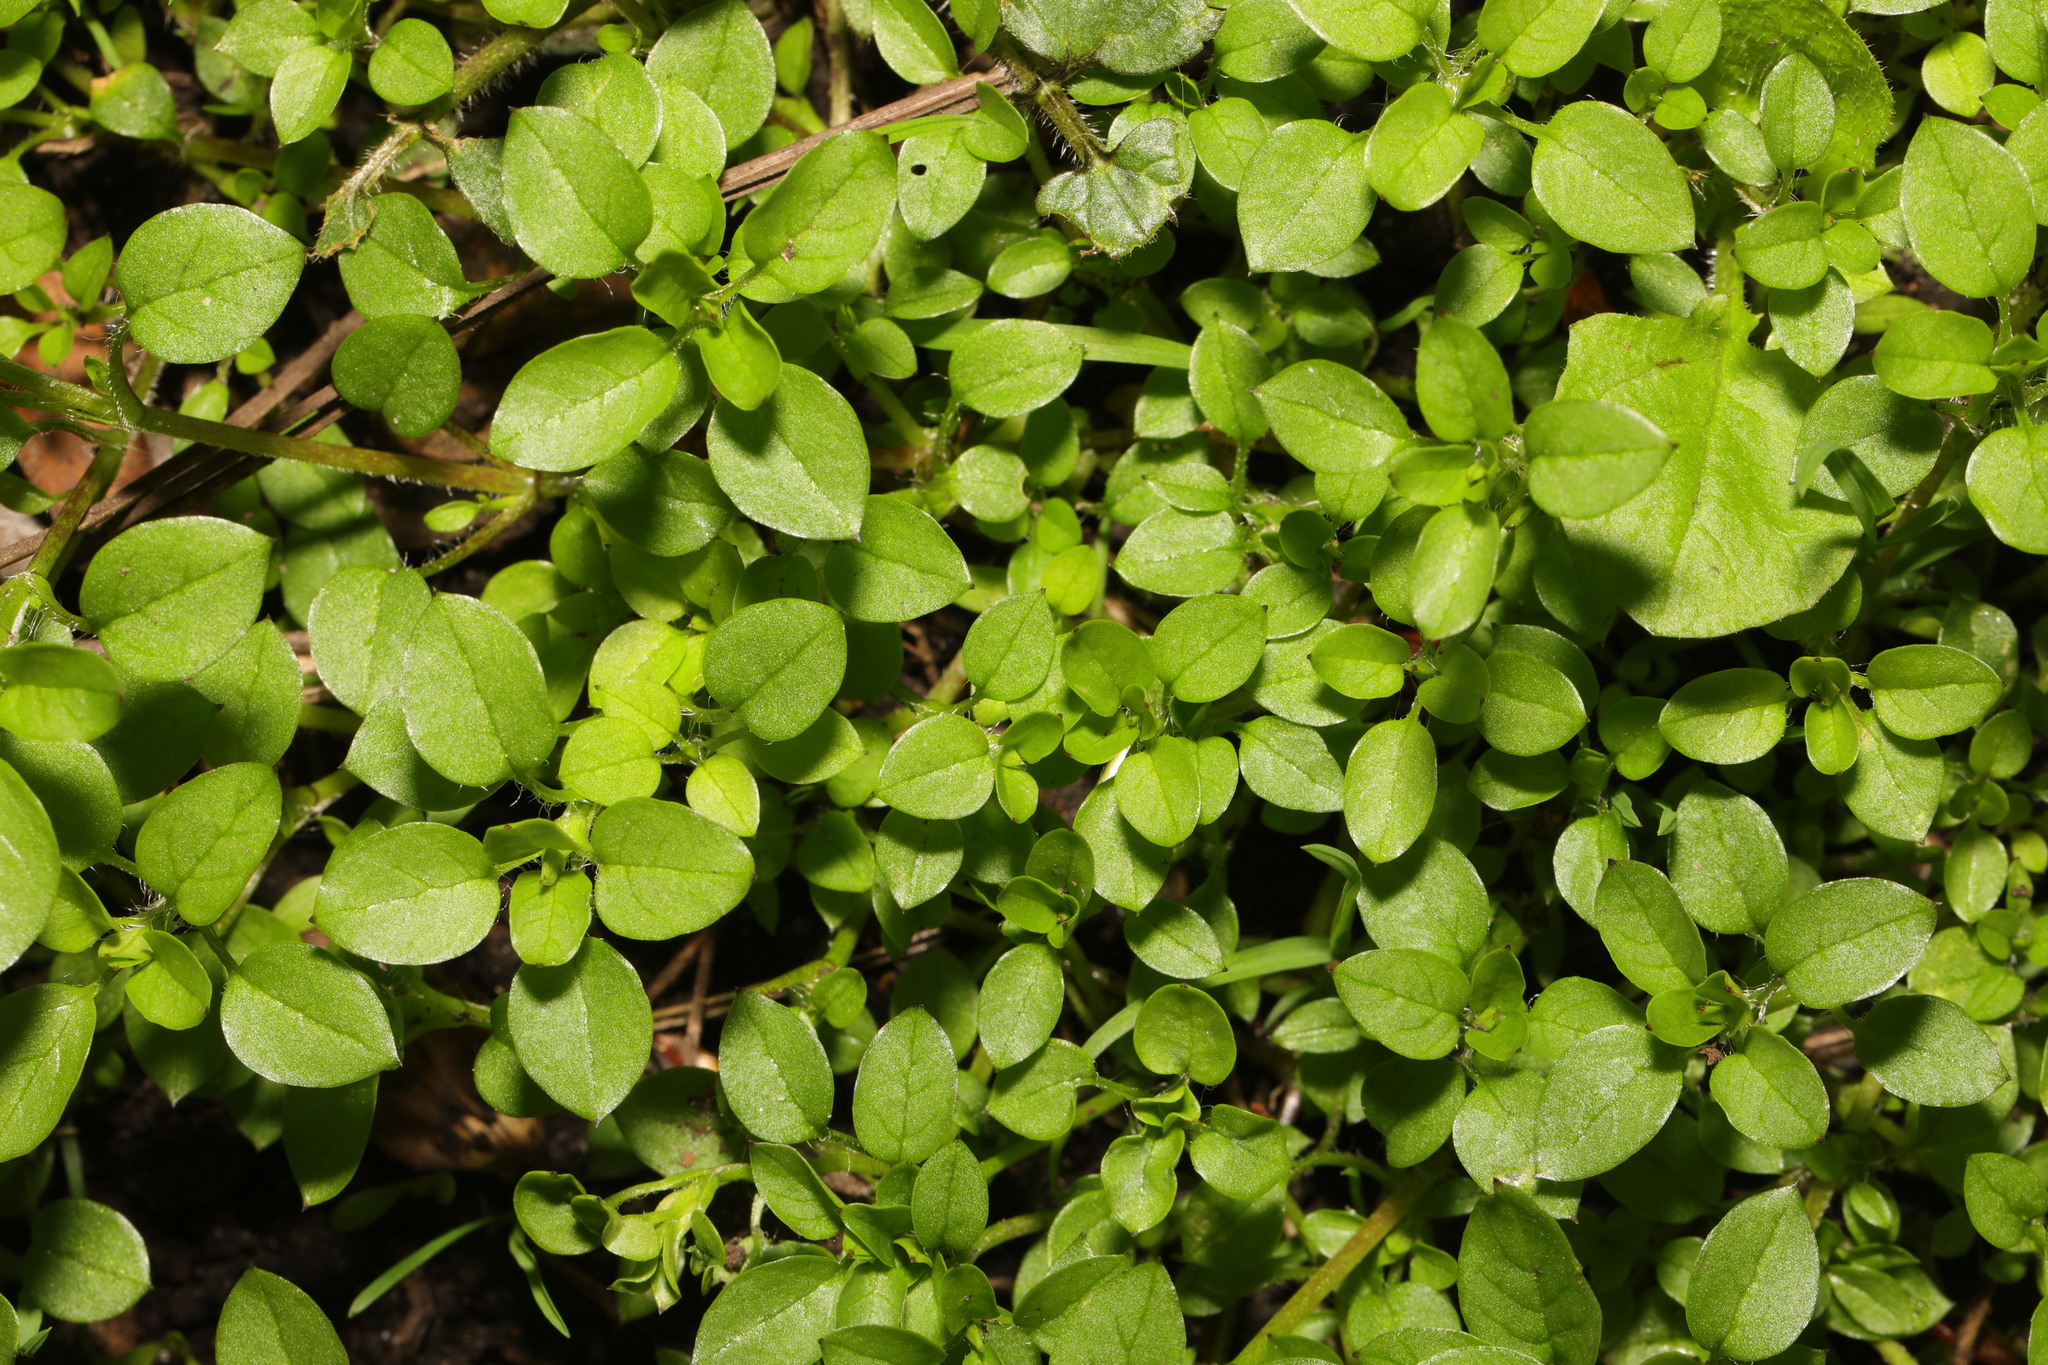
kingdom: Plantae
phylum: Tracheophyta
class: Magnoliopsida
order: Caryophyllales
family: Caryophyllaceae
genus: Stellaria
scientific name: Stellaria media
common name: Common chickweed
